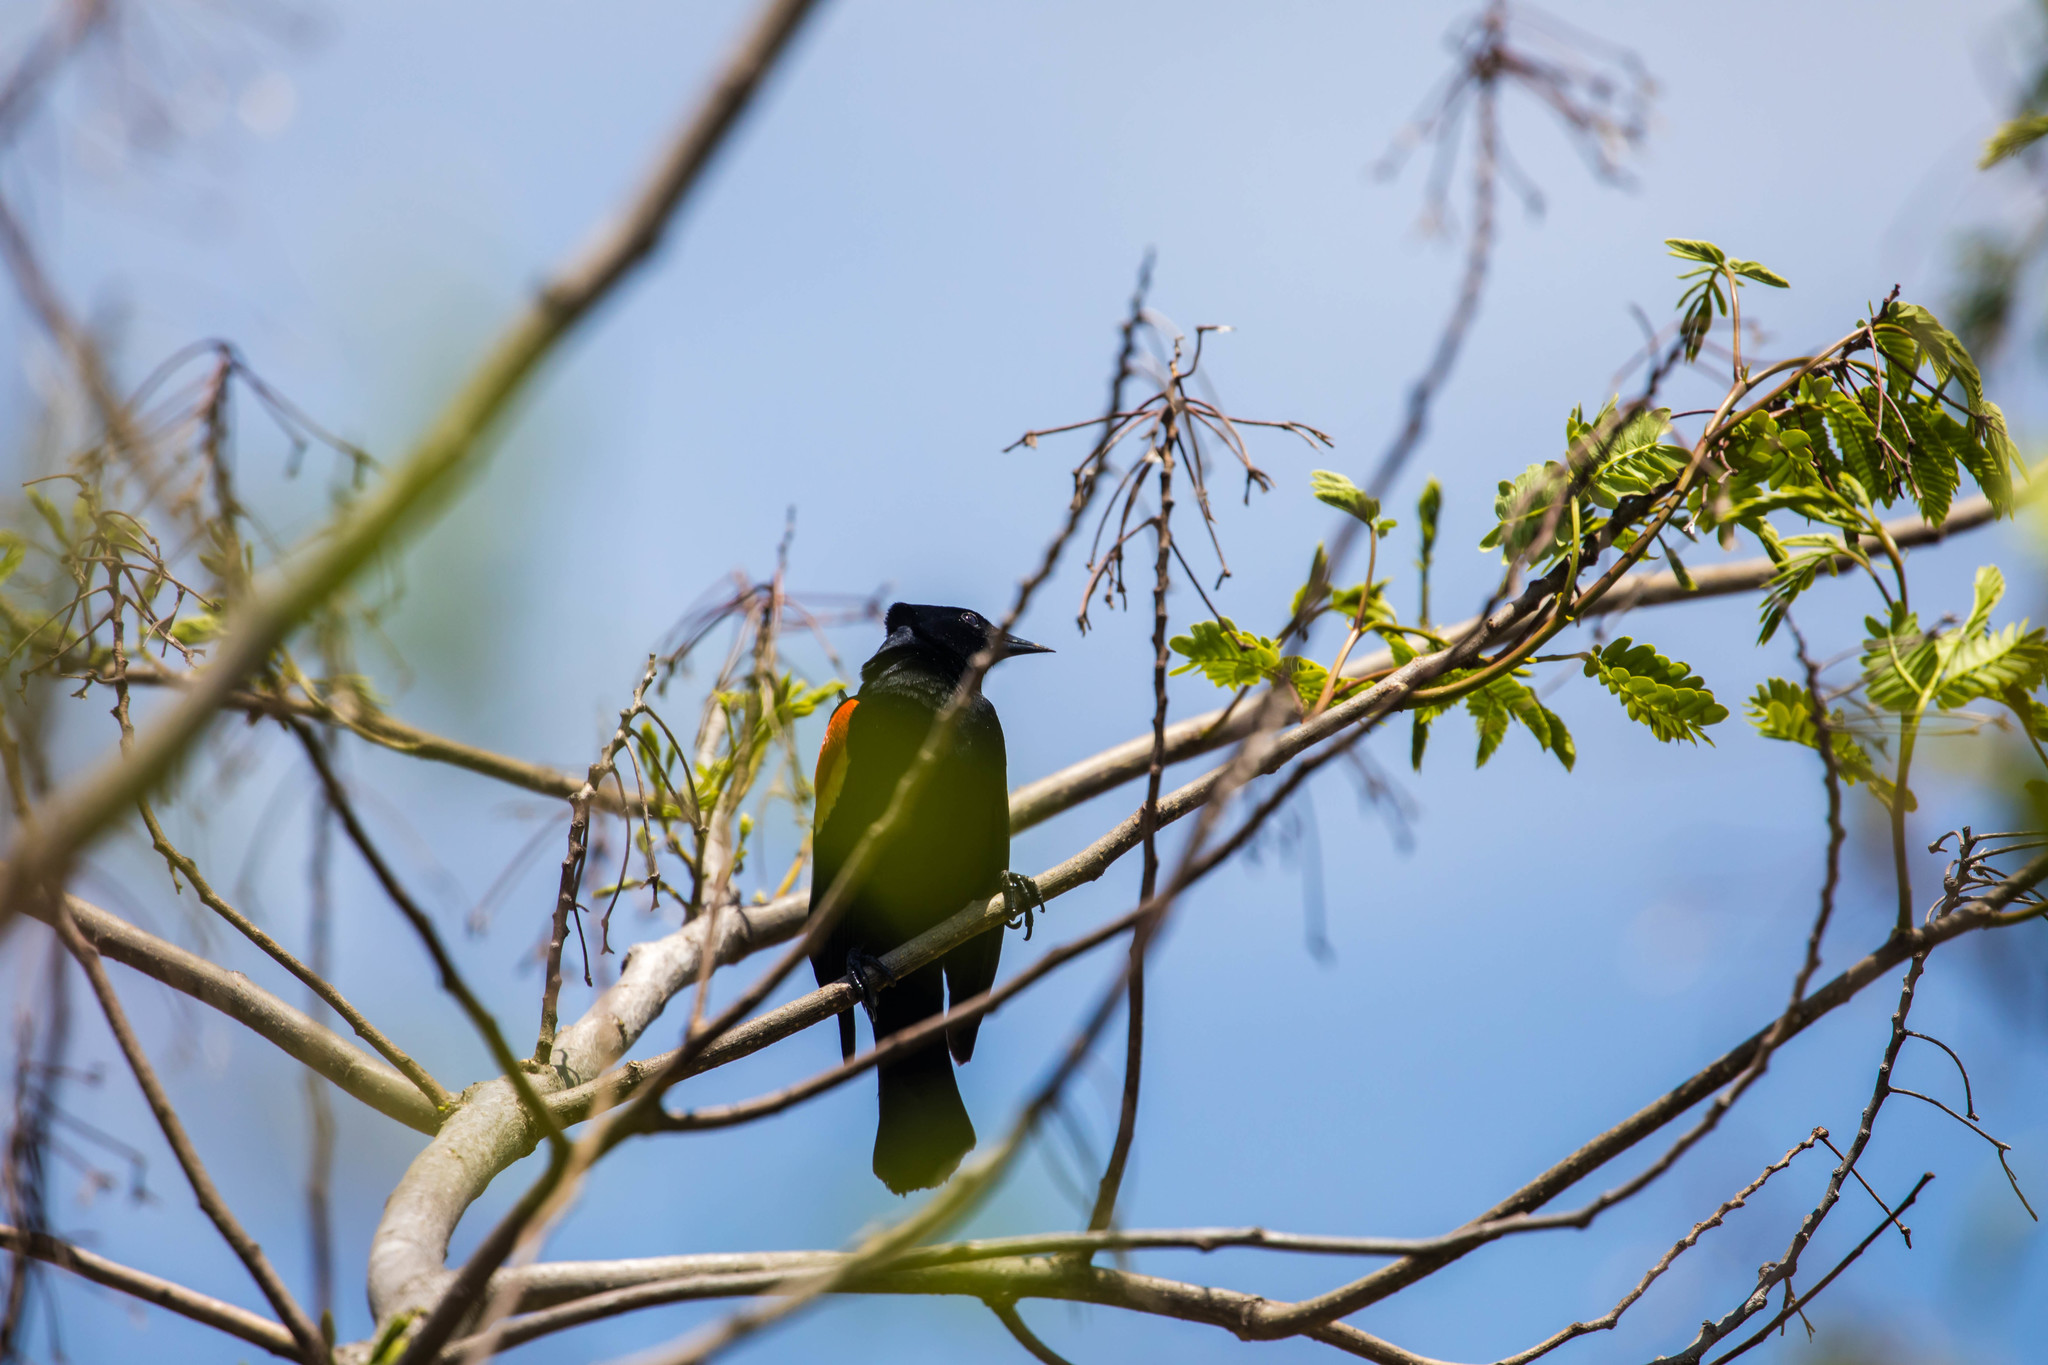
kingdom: Animalia
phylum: Chordata
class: Aves
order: Passeriformes
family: Icteridae
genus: Agelaius
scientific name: Agelaius phoeniceus
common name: Red-winged blackbird
